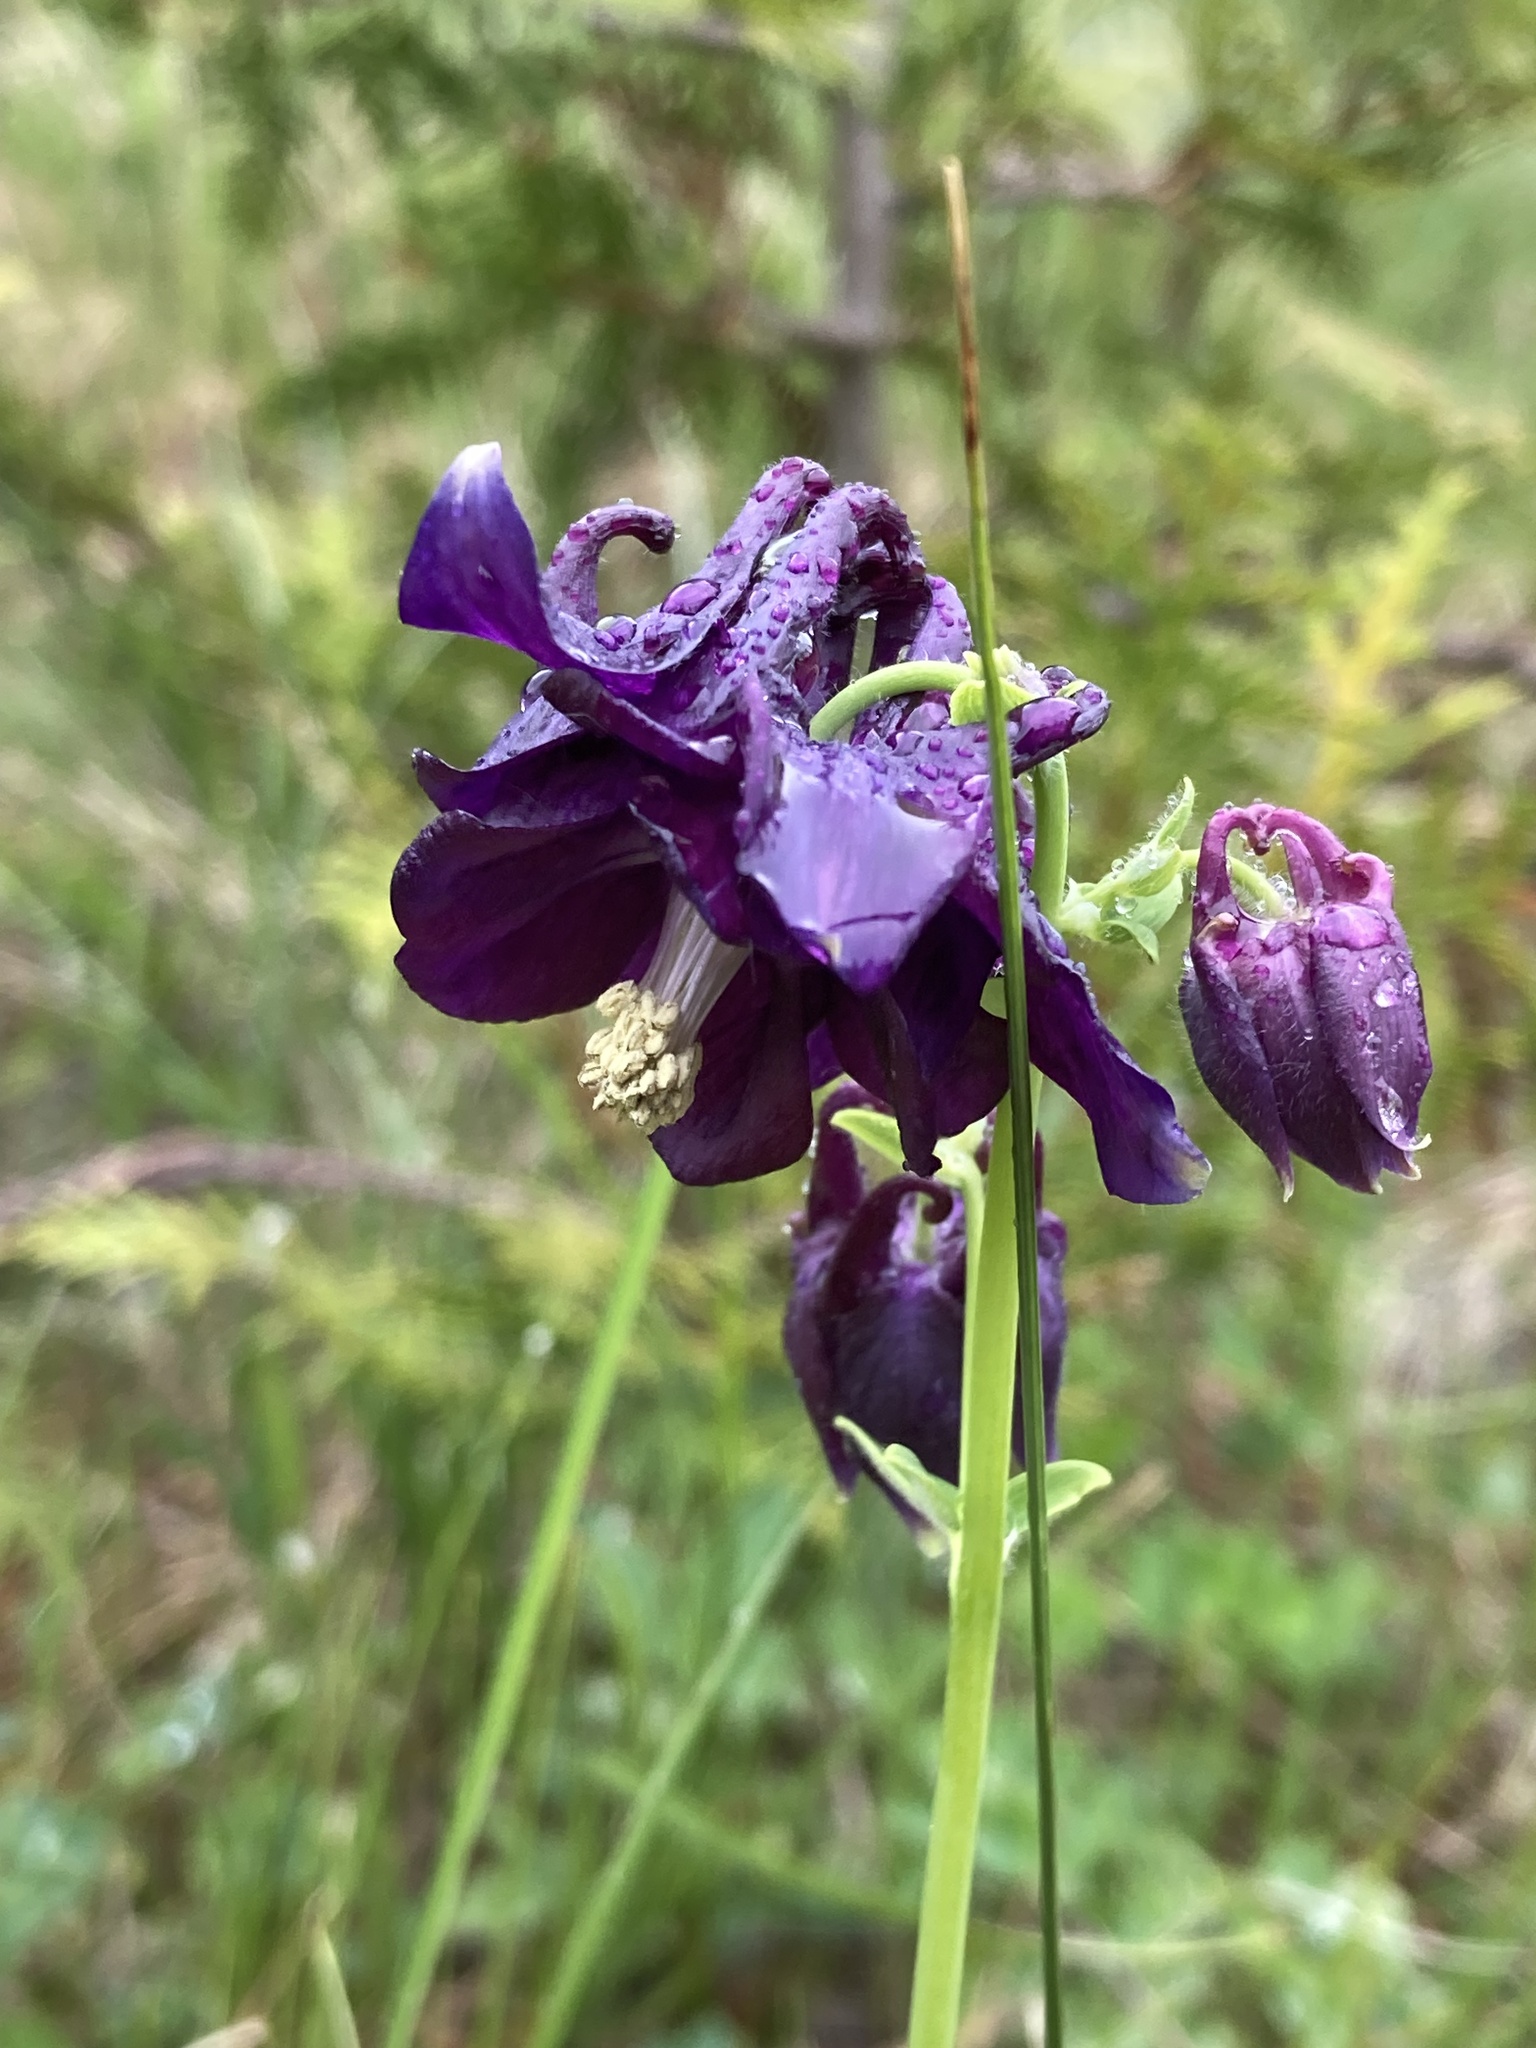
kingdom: Plantae
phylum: Tracheophyta
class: Magnoliopsida
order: Ranunculales
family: Ranunculaceae
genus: Aquilegia
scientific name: Aquilegia vulgaris
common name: Columbine
